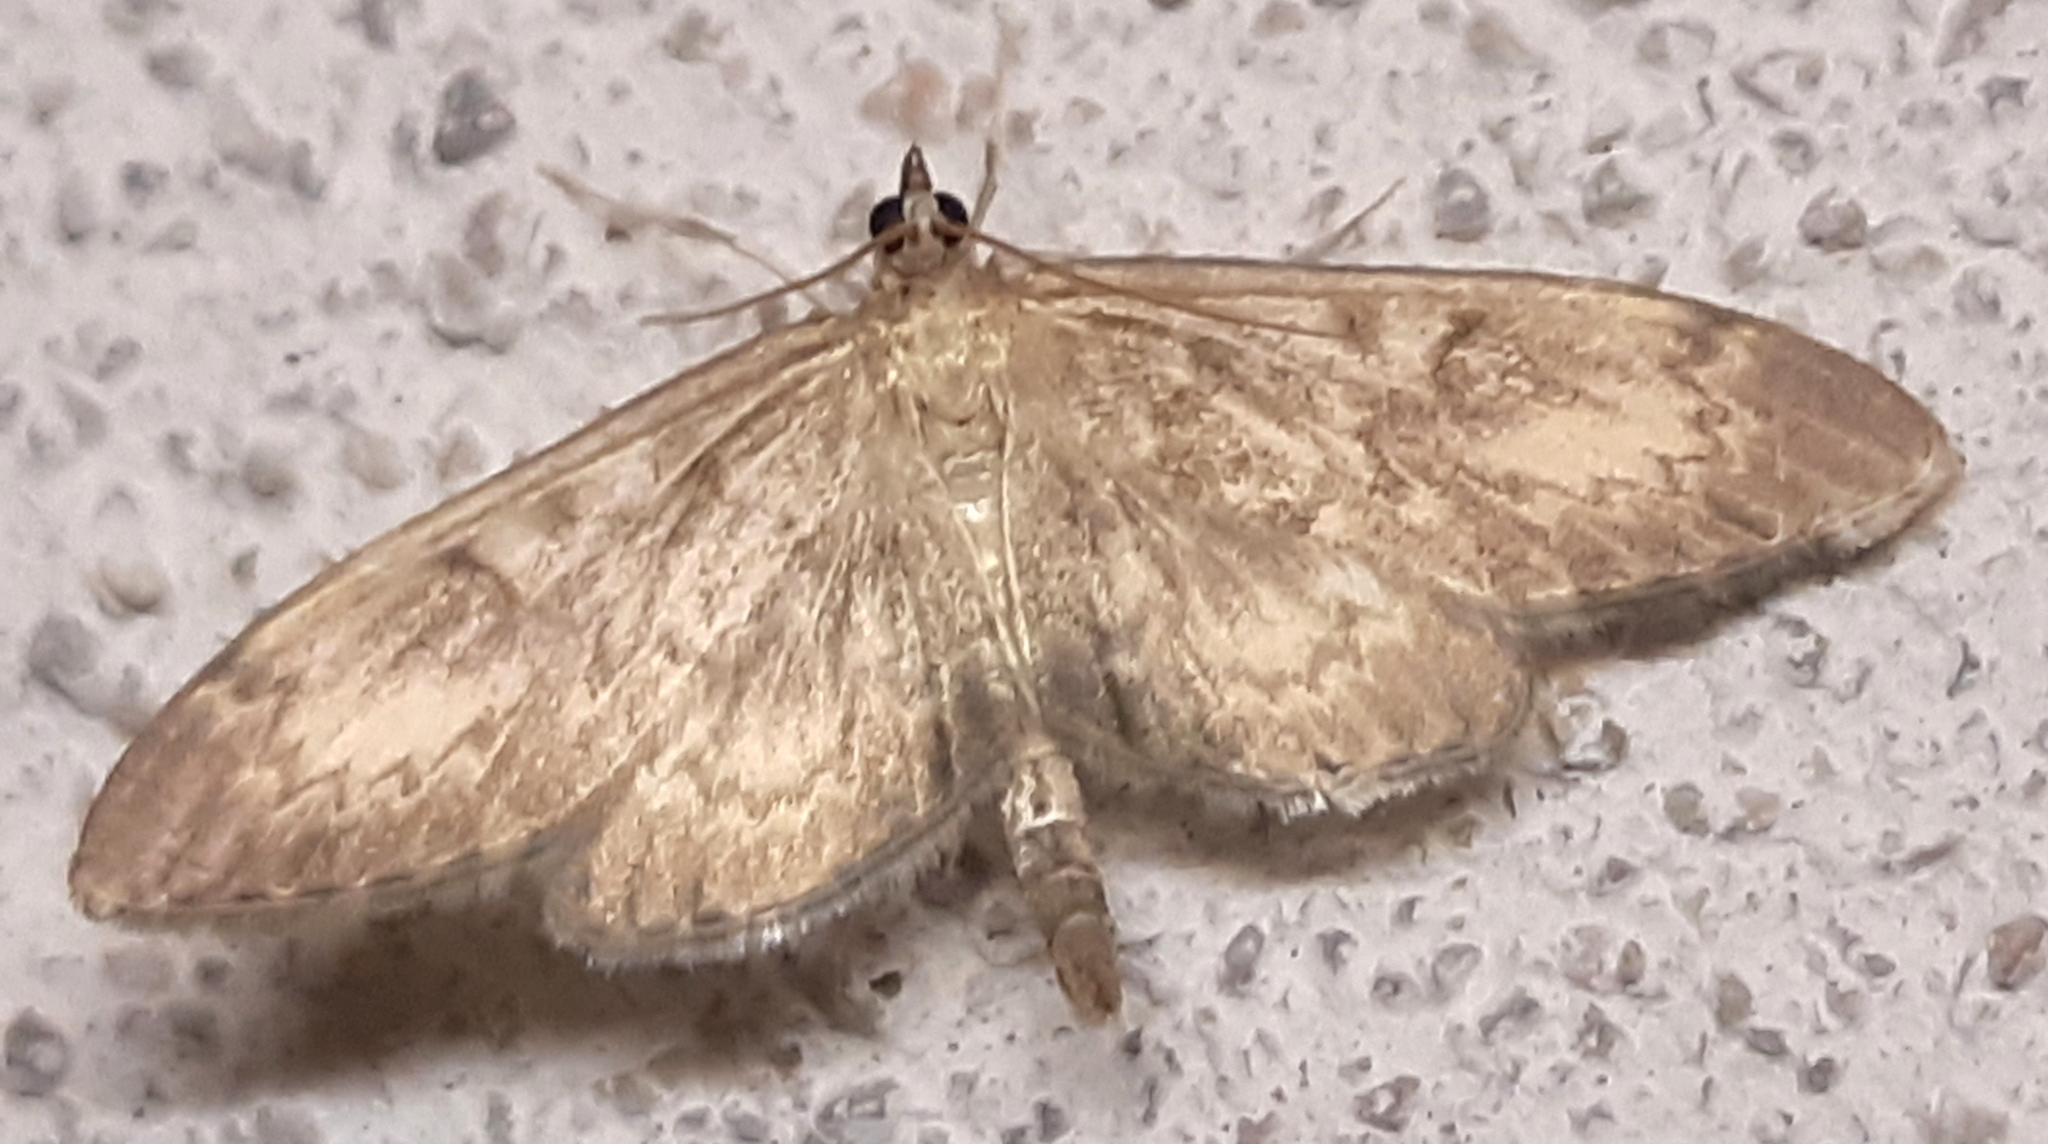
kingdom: Animalia
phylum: Arthropoda
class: Insecta
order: Lepidoptera
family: Crambidae
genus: Anania
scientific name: Anania lancealis
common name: Long-winged pearl
